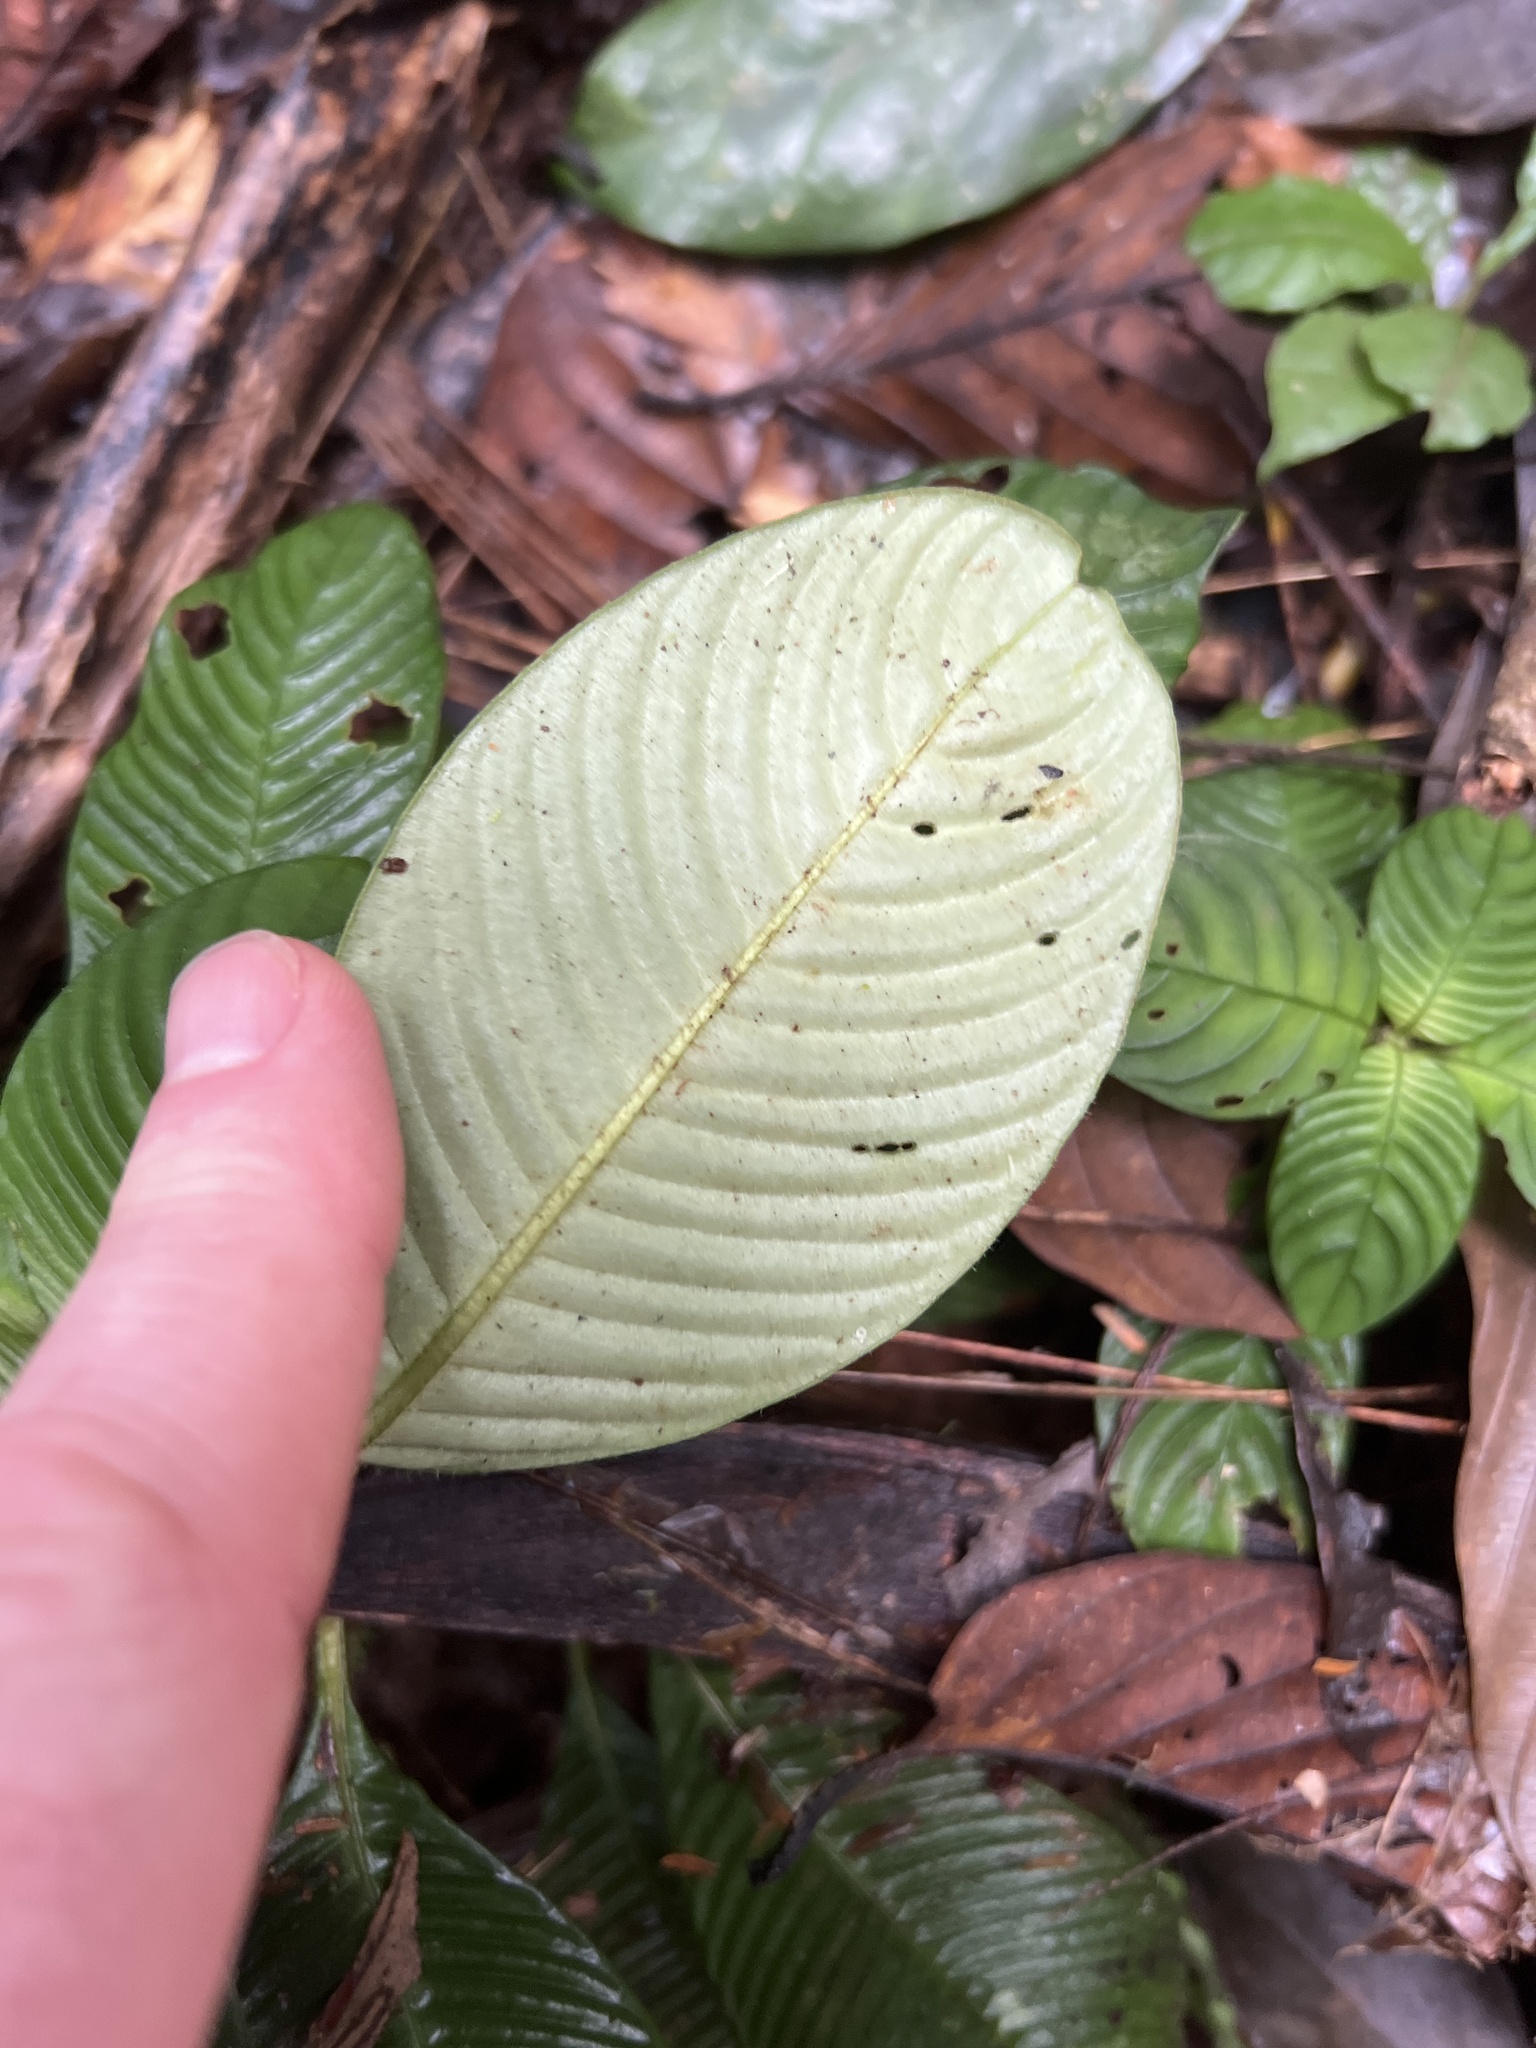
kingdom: Plantae
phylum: Tracheophyta
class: Magnoliopsida
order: Gentianales
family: Rubiaceae
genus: Notopleura
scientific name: Notopleura polyphlebia
